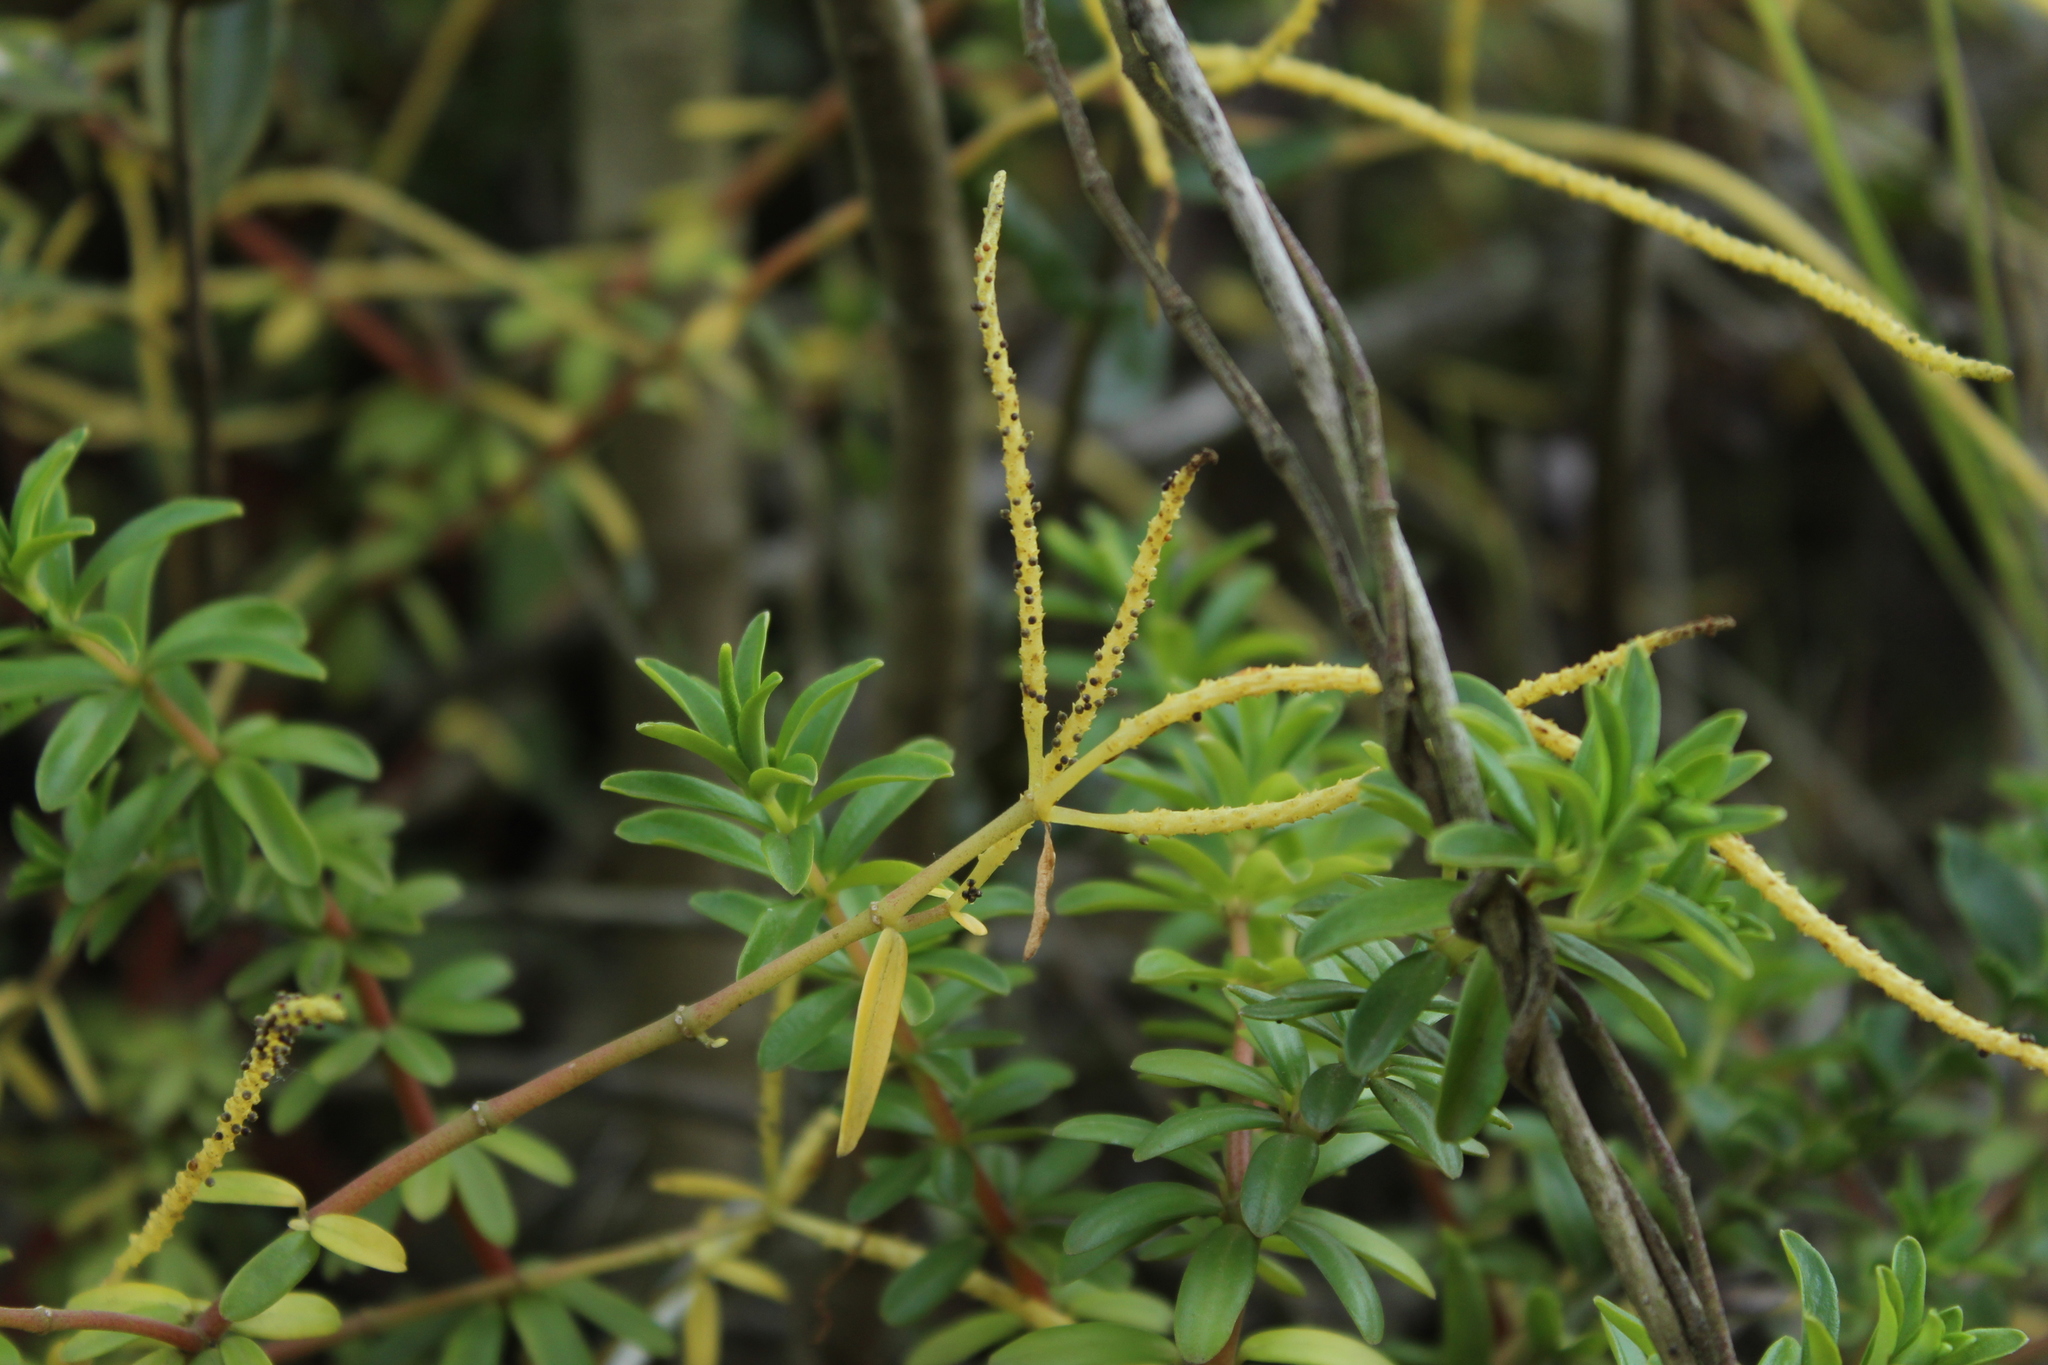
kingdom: Plantae
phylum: Tracheophyta
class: Magnoliopsida
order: Piperales
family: Piperaceae
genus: Peperomia
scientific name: Peperomia ilaloensis
